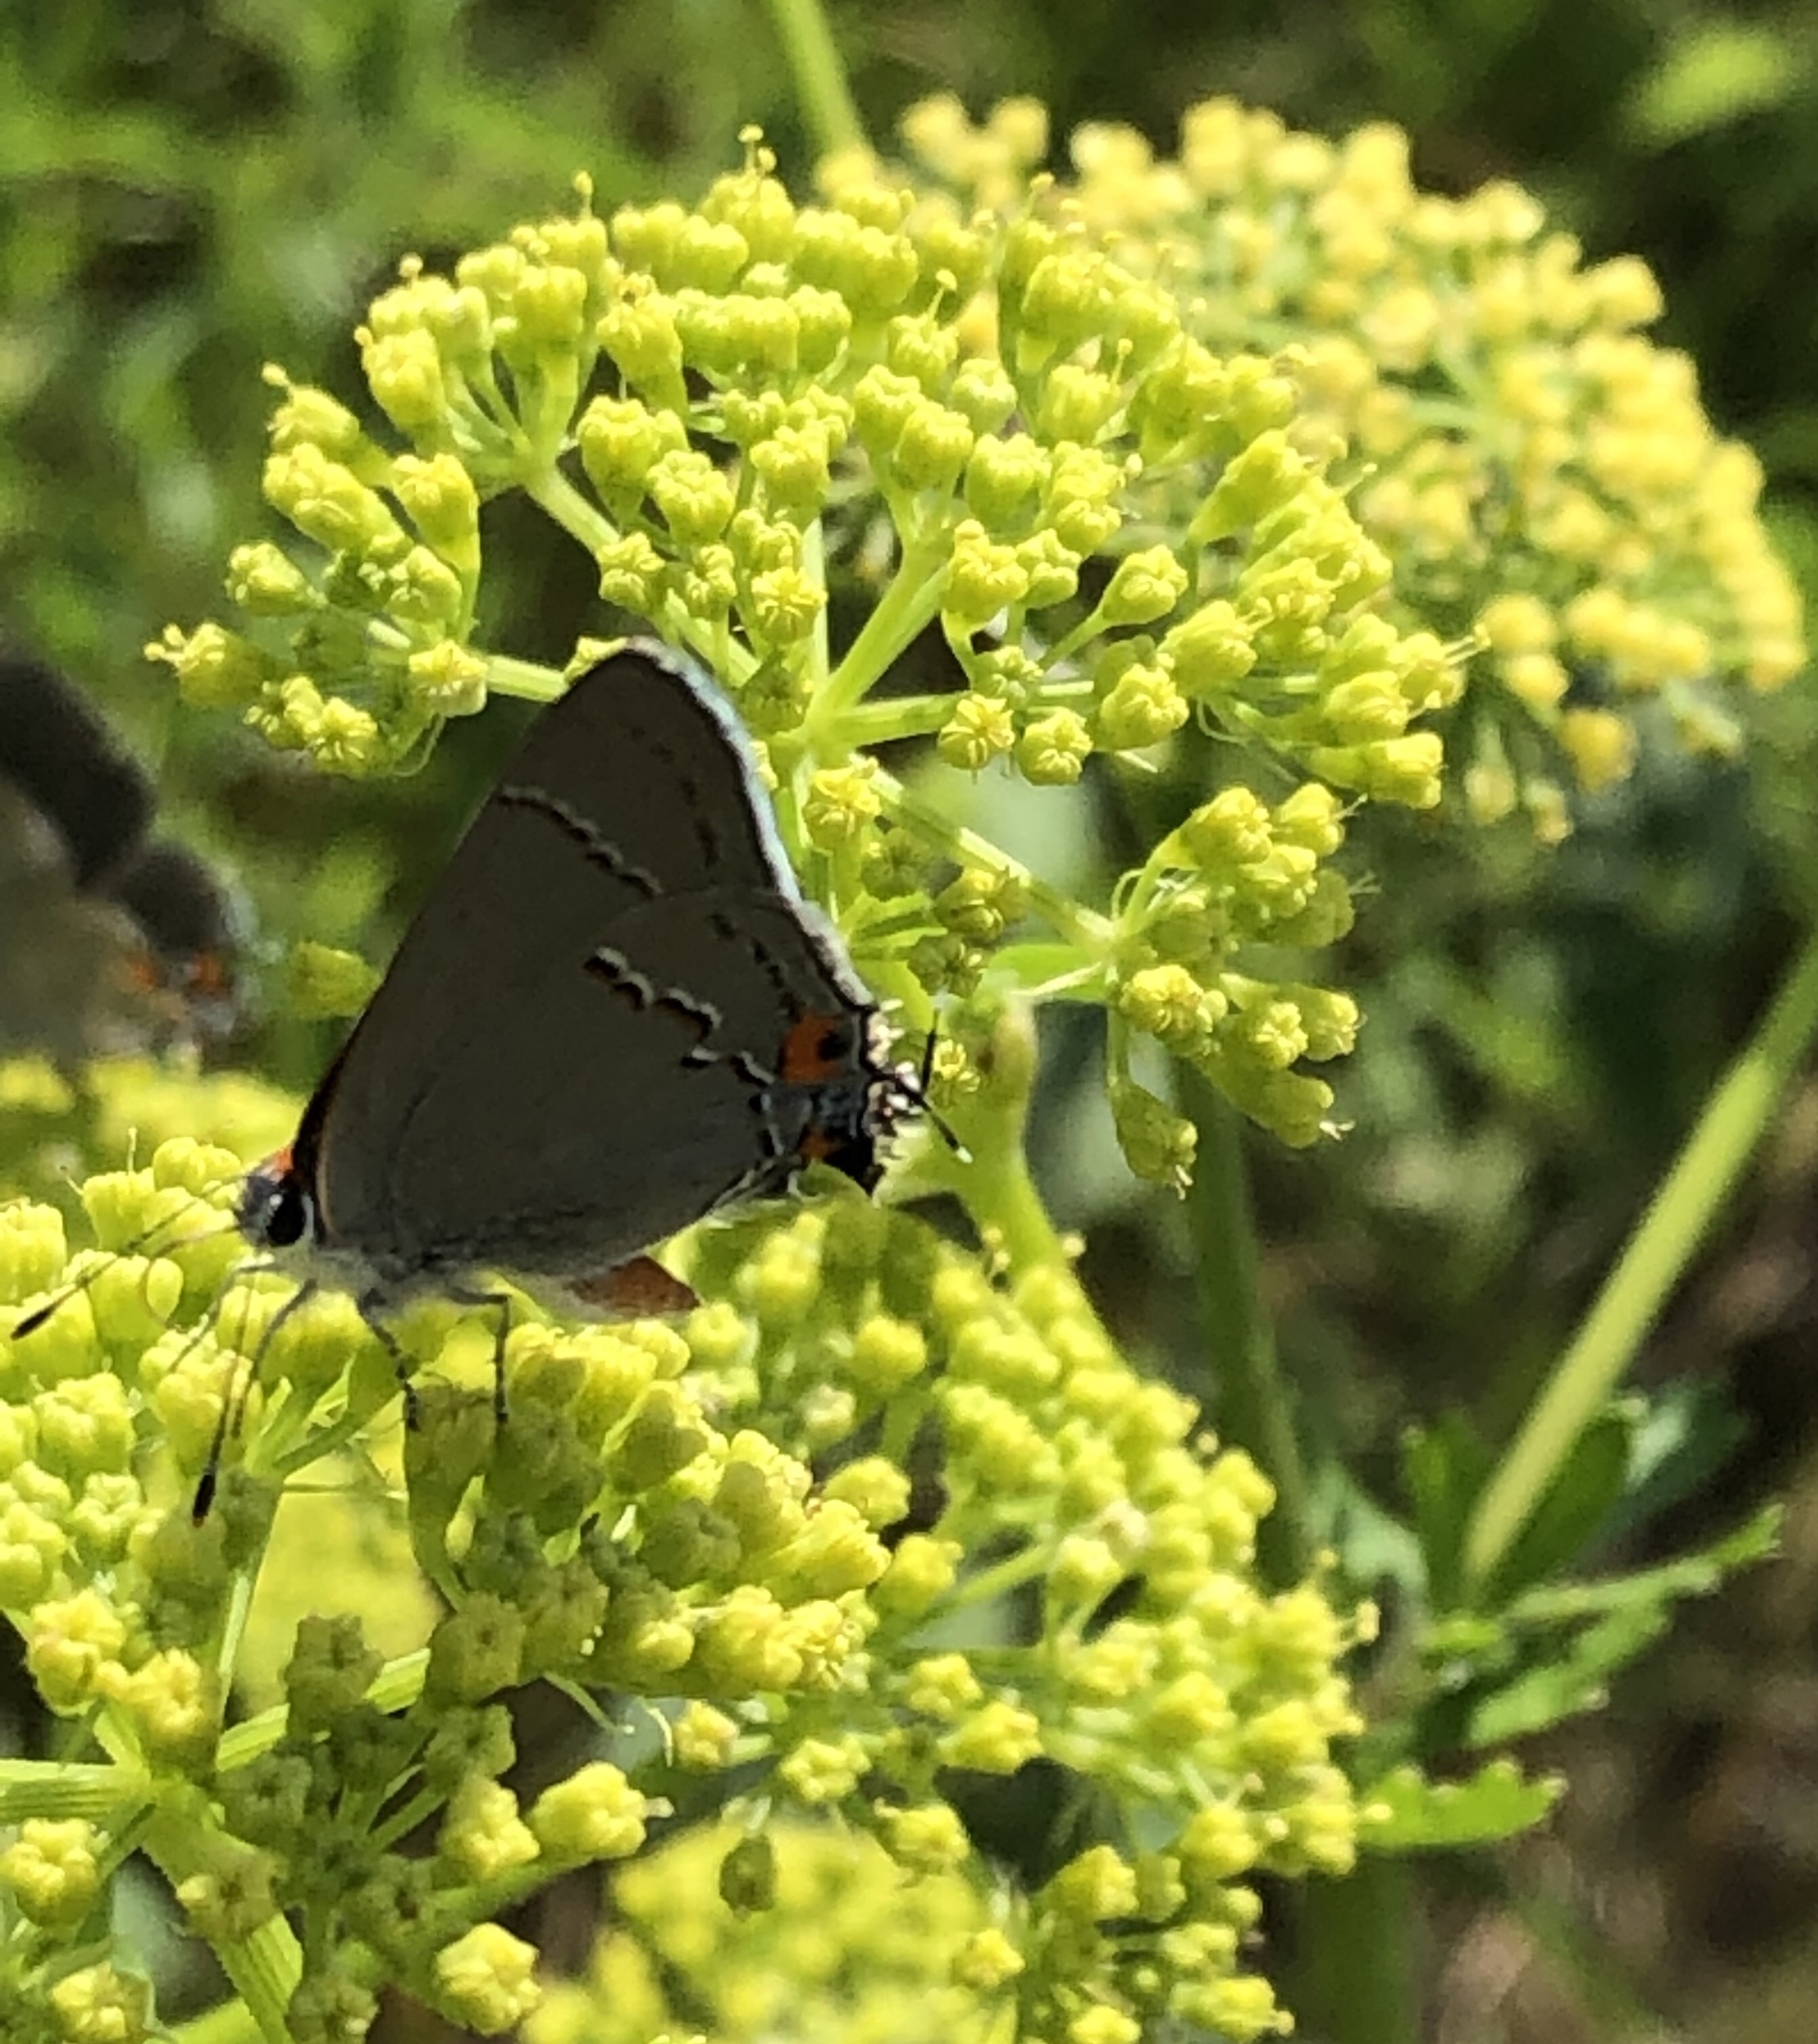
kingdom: Animalia
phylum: Arthropoda
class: Insecta
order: Lepidoptera
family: Lycaenidae
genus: Strymon
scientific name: Strymon melinus
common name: Gray hairstreak
